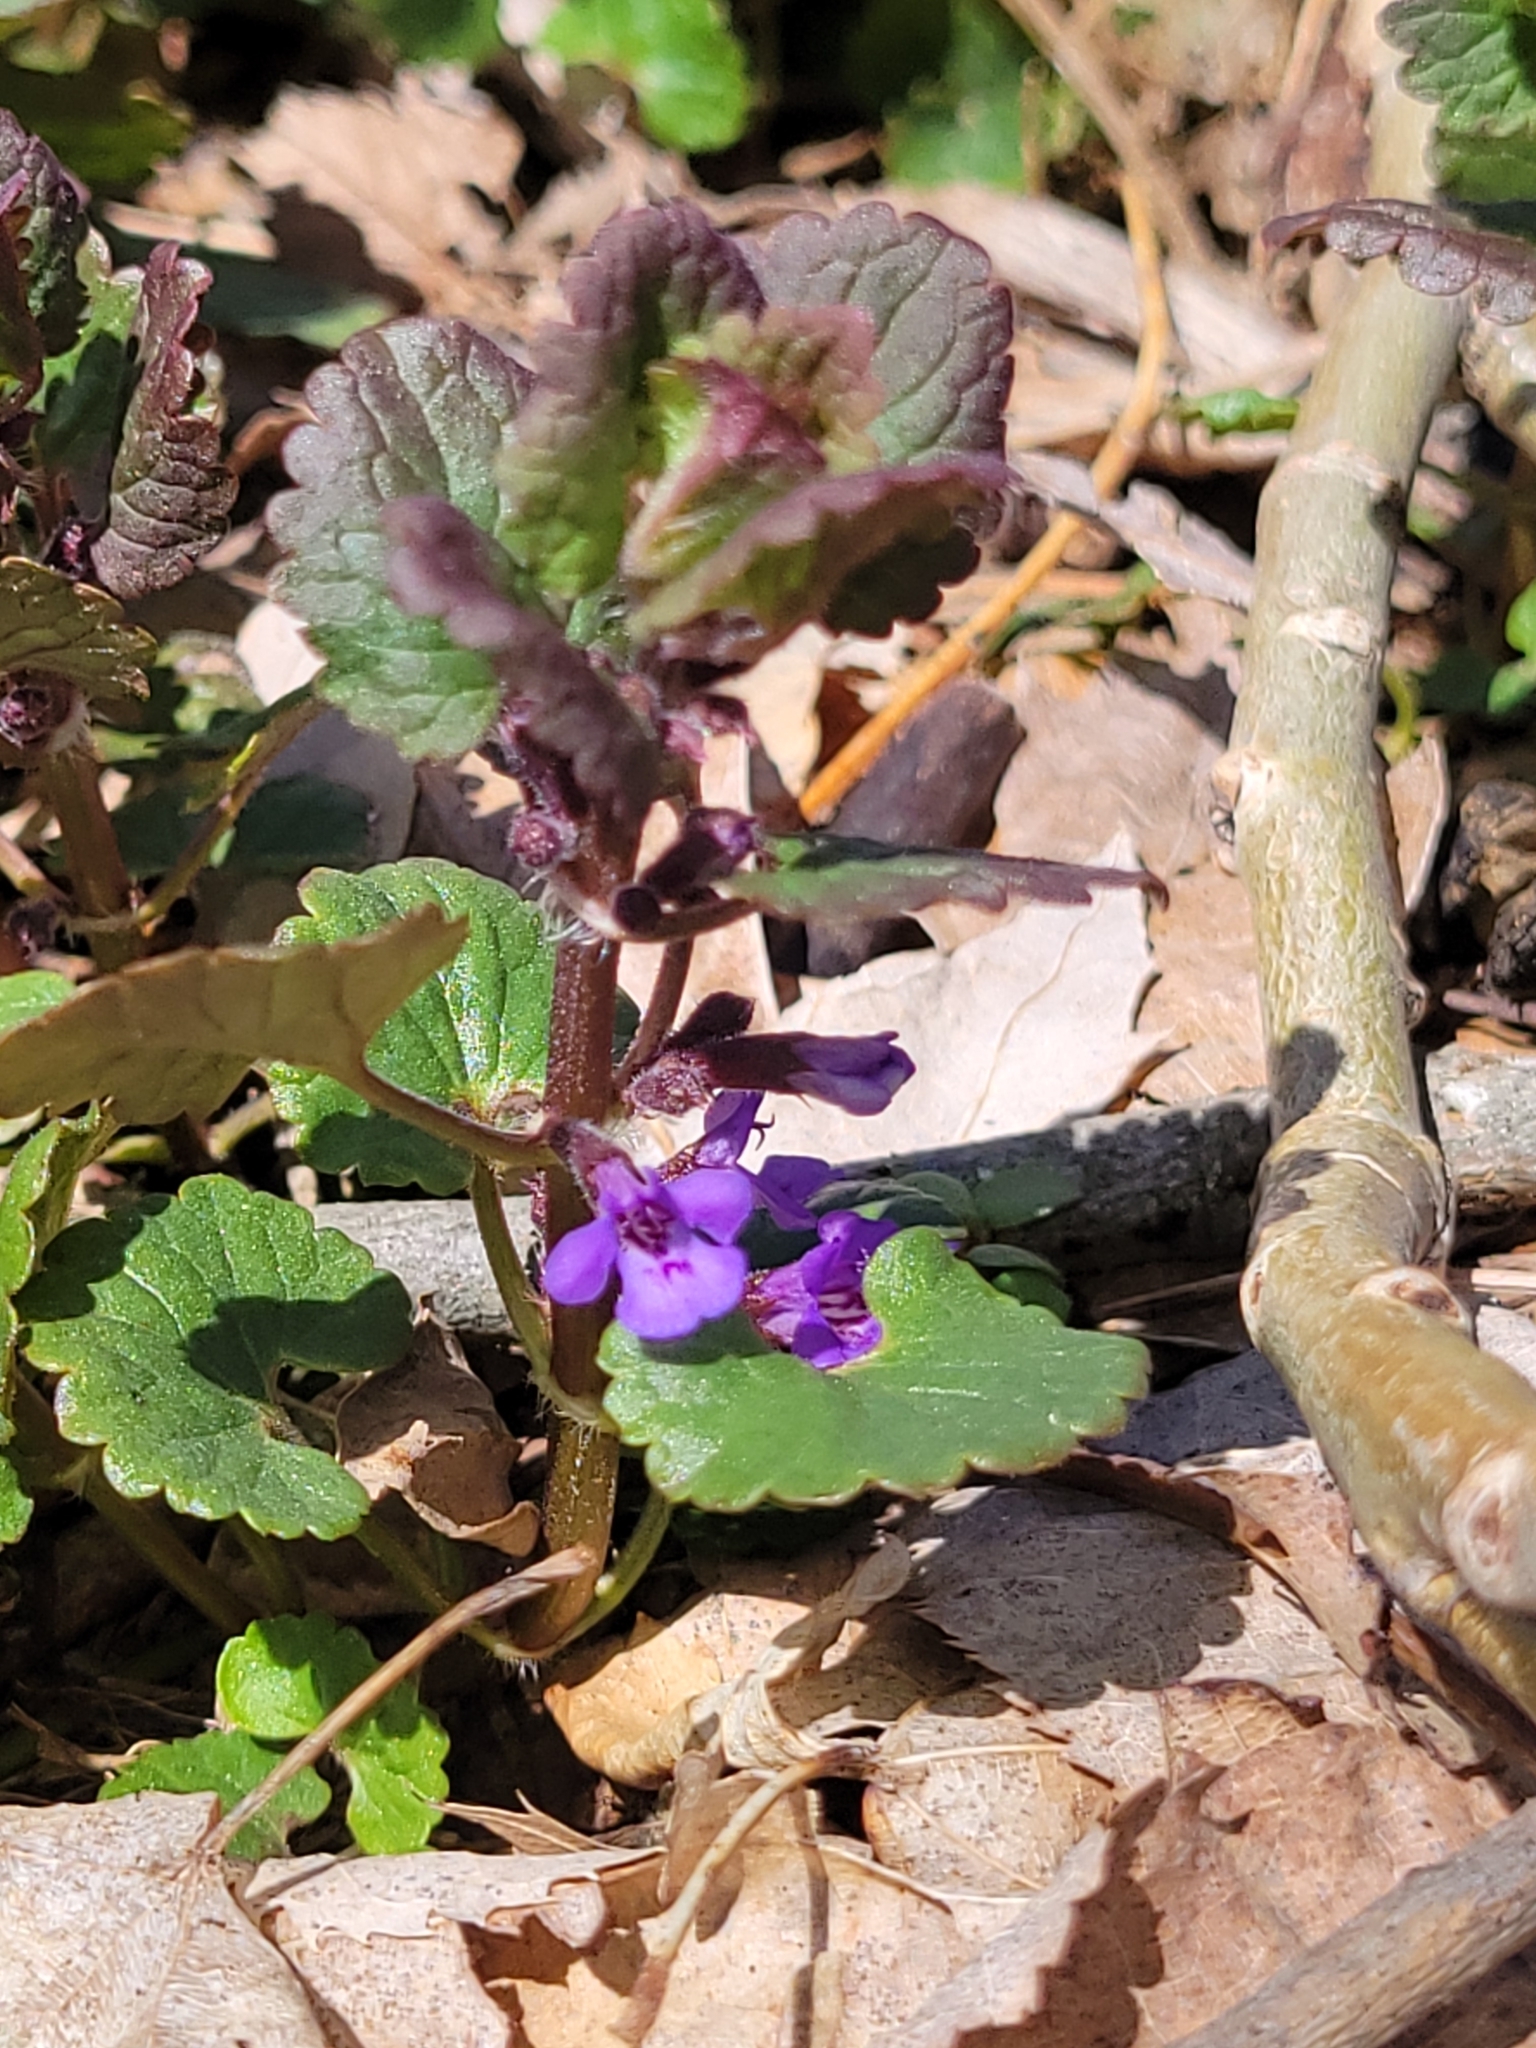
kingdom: Plantae
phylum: Tracheophyta
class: Magnoliopsida
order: Lamiales
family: Lamiaceae
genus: Glechoma
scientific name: Glechoma hederacea
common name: Ground ivy
